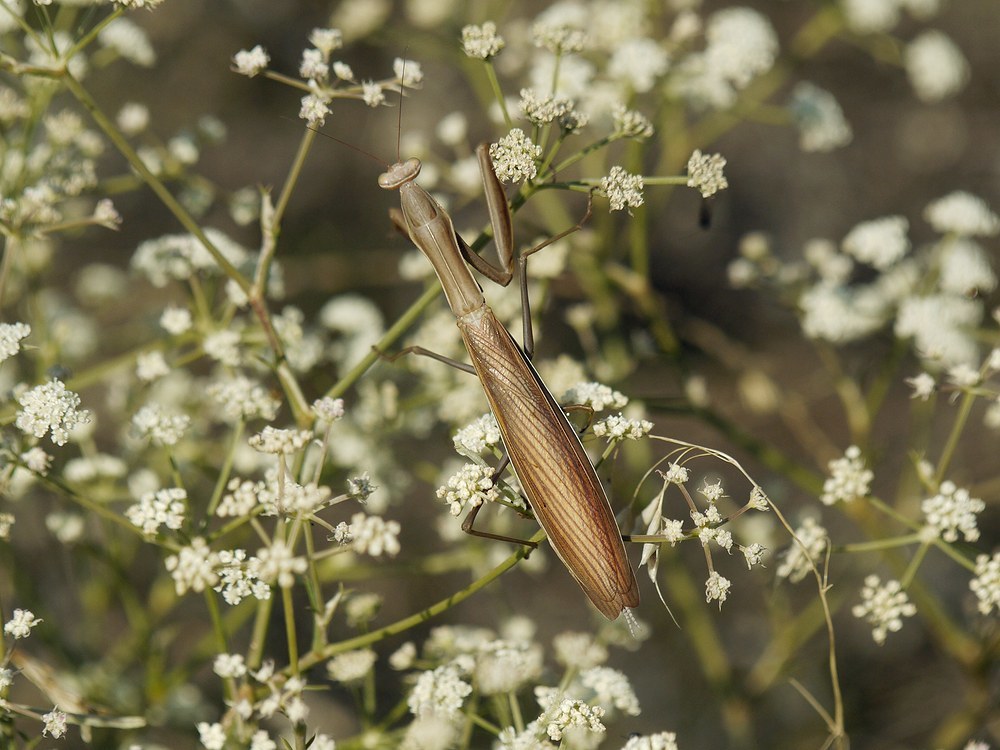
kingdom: Animalia
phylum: Arthropoda
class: Insecta
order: Mantodea
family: Mantidae
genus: Mantis
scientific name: Mantis religiosa
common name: Praying mantis
